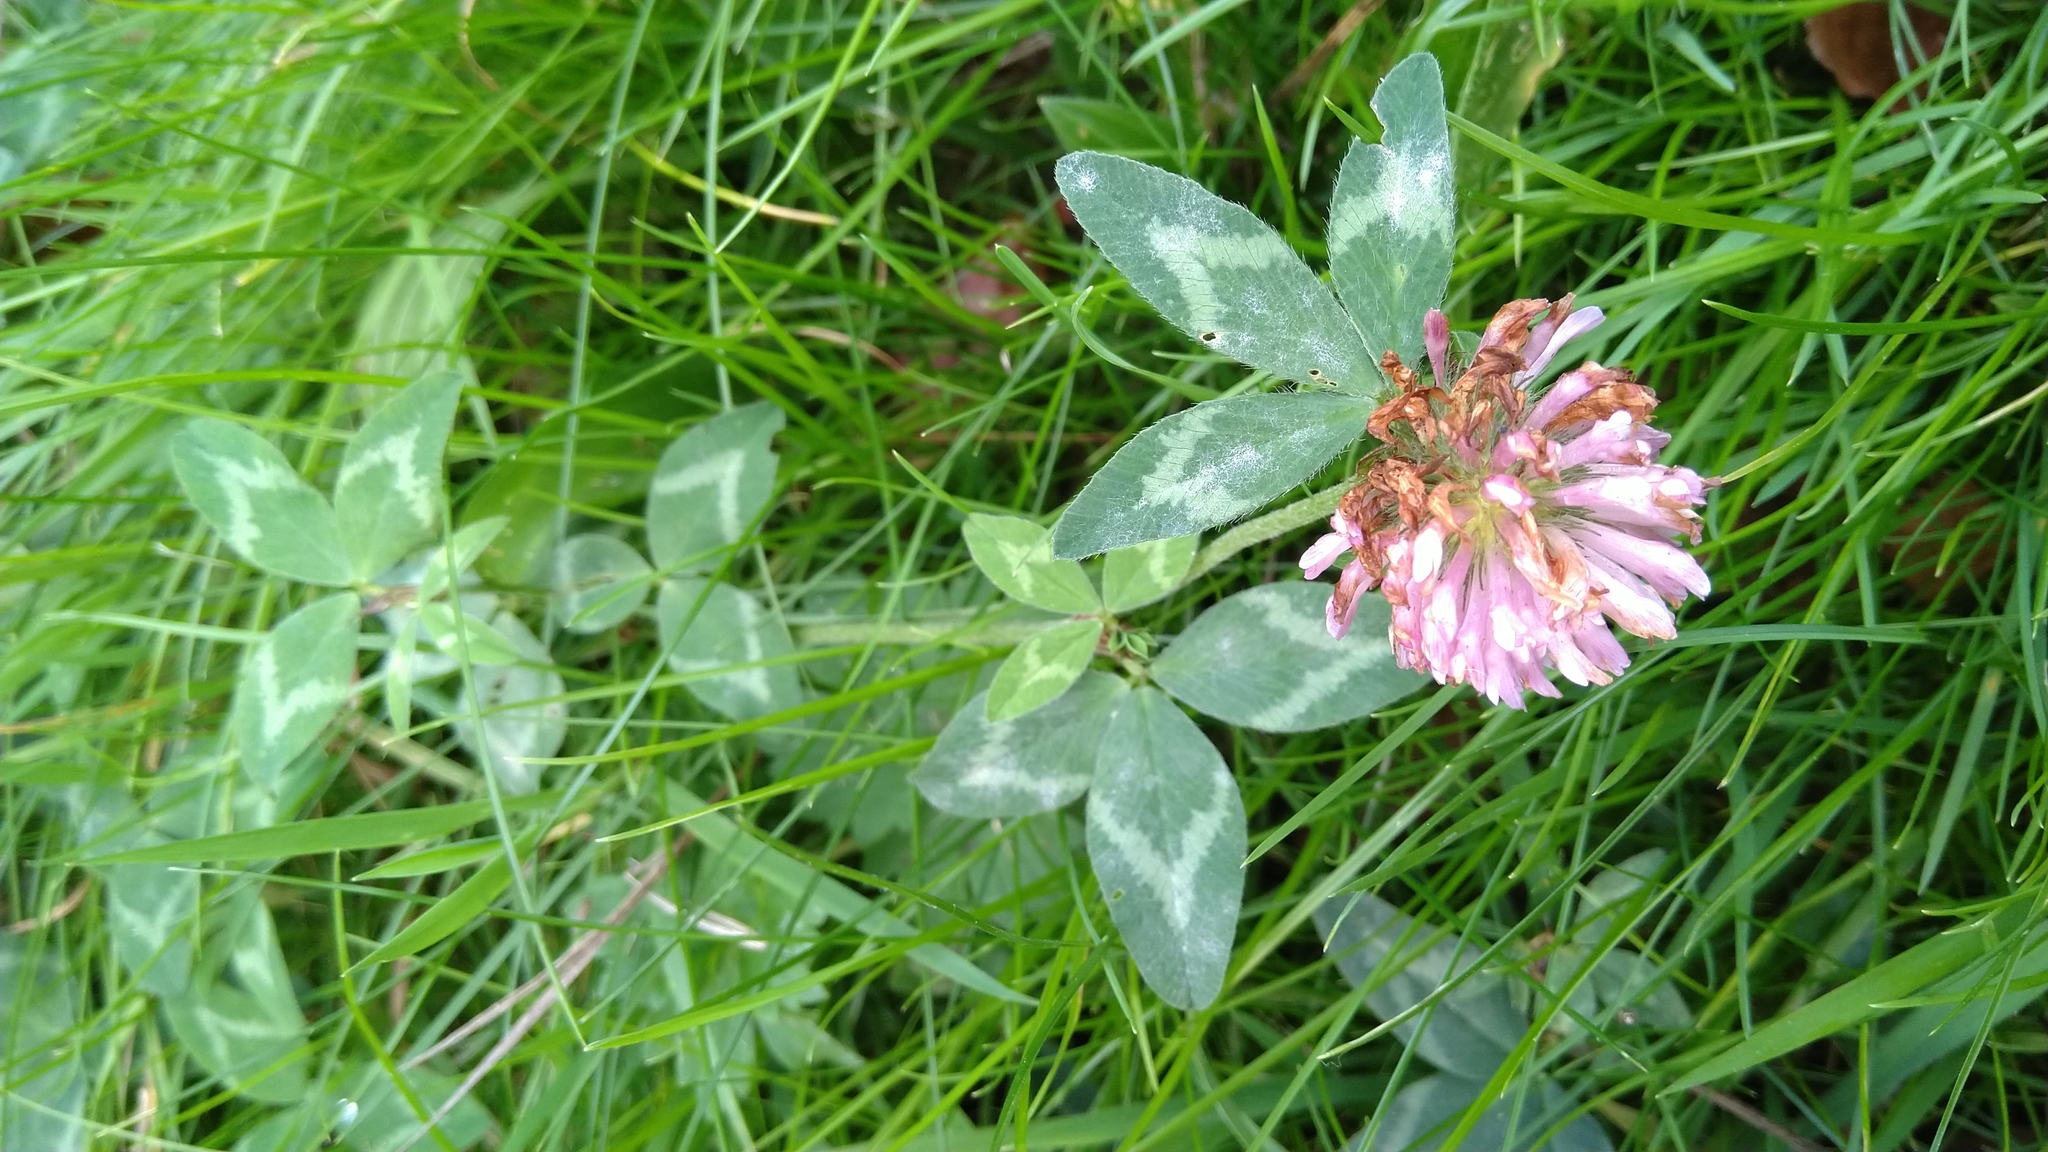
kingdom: Plantae
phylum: Tracheophyta
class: Magnoliopsida
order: Fabales
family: Fabaceae
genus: Trifolium
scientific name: Trifolium pratense
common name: Red clover
